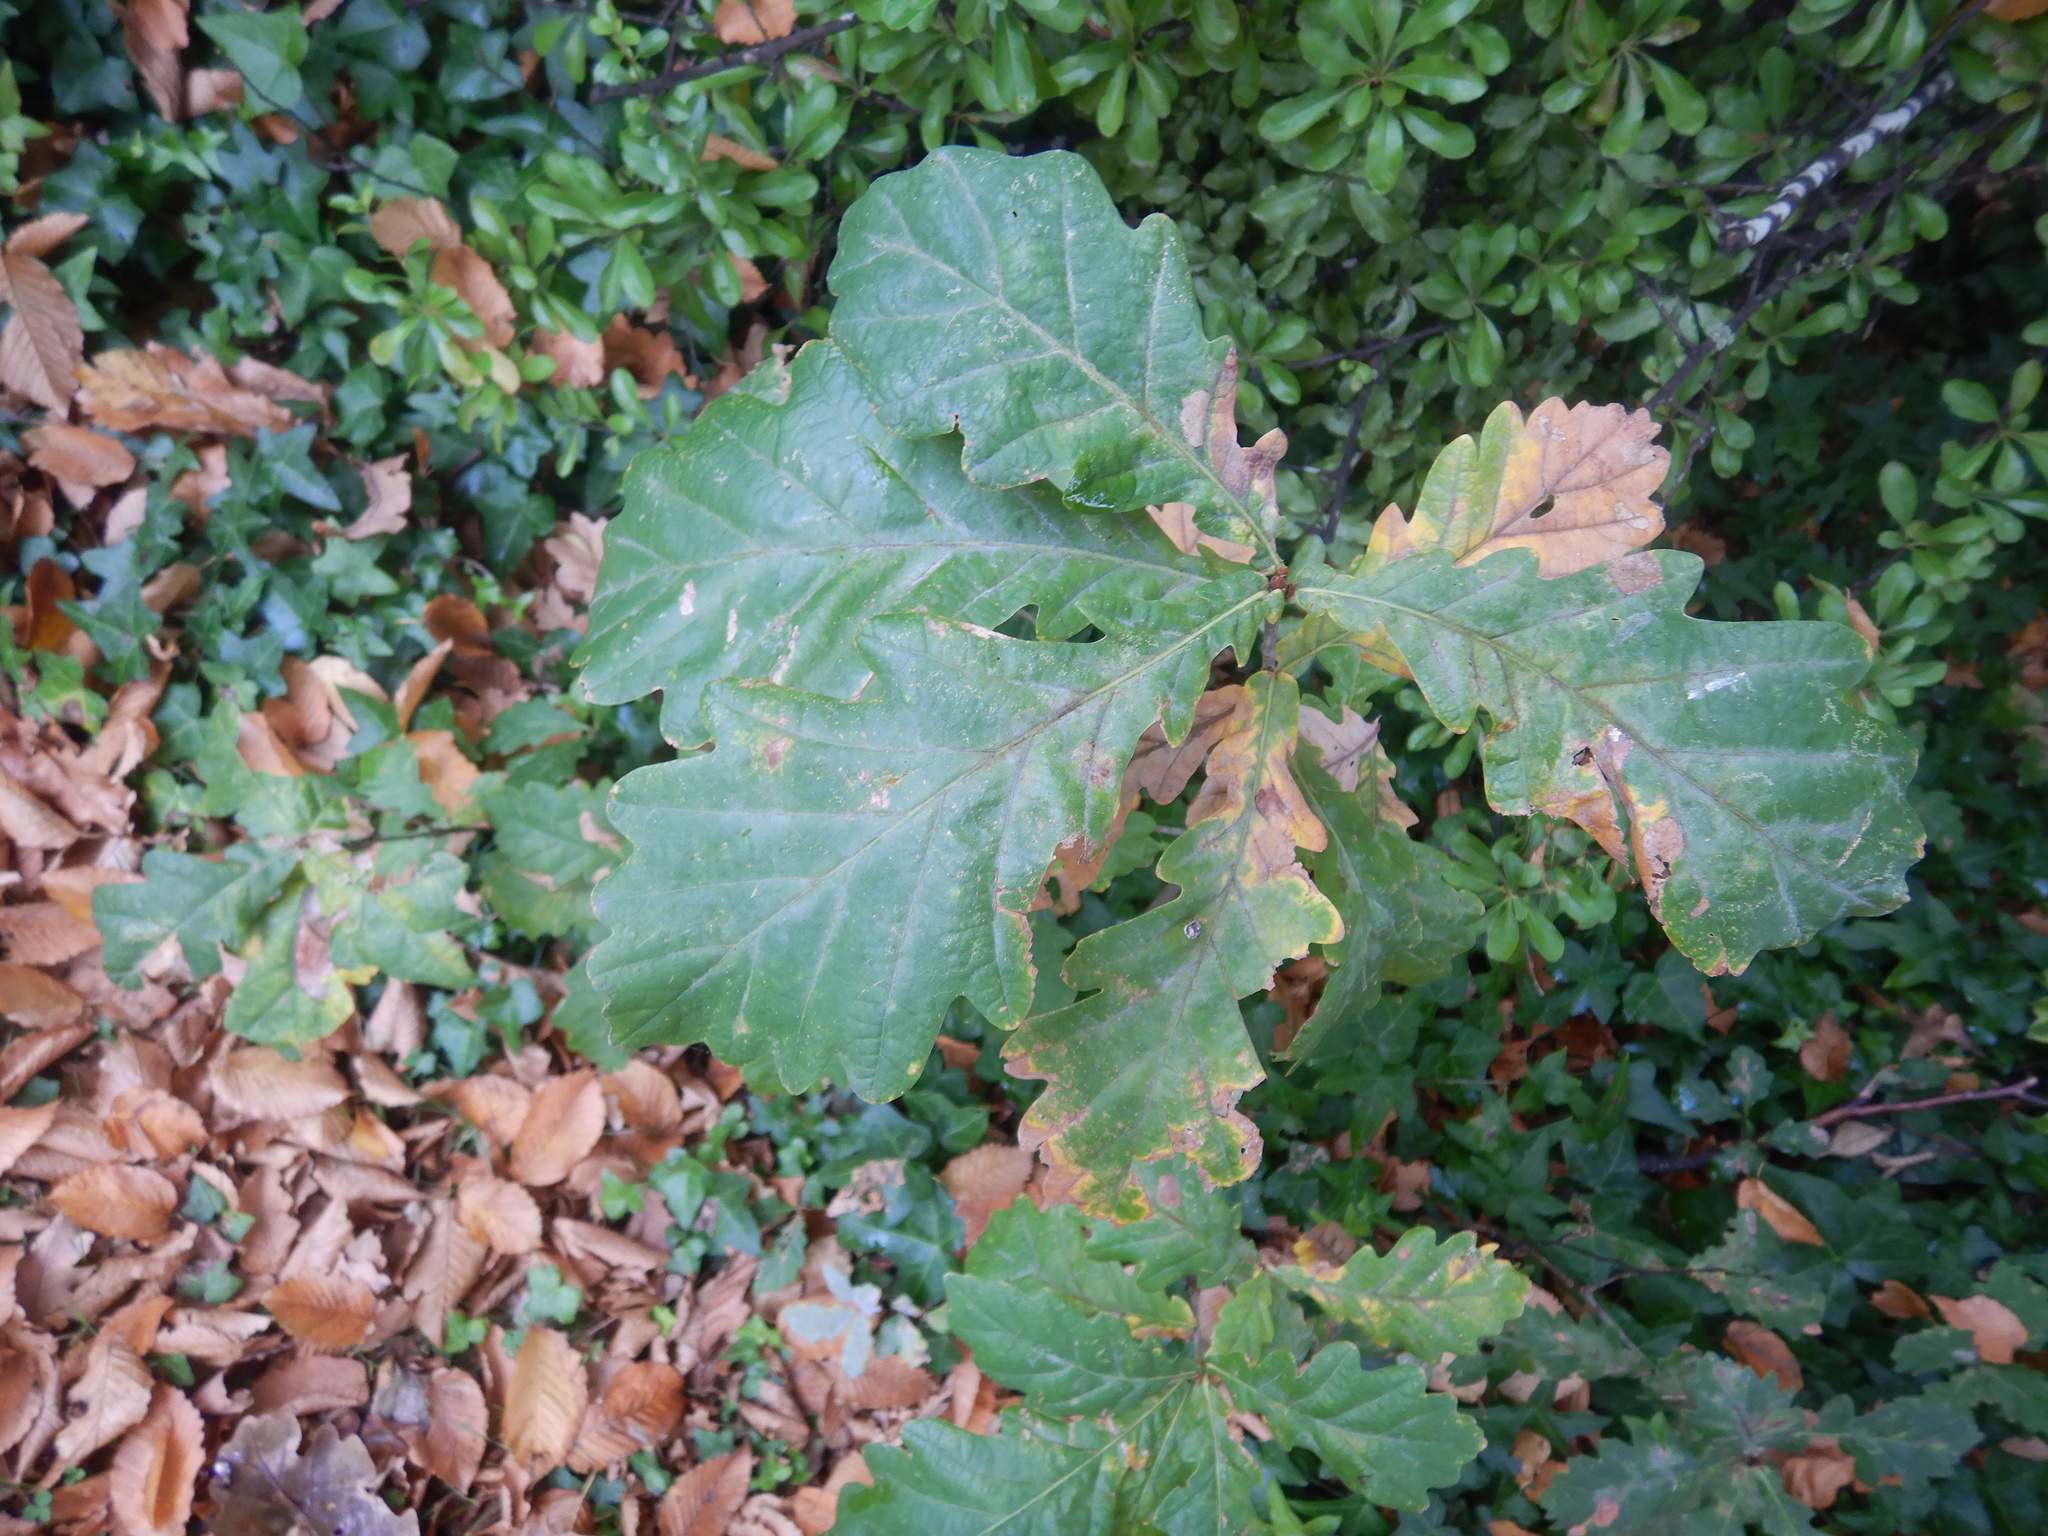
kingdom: Plantae
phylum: Tracheophyta
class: Magnoliopsida
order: Fagales
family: Fagaceae
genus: Quercus
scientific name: Quercus robur
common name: Pedunculate oak
